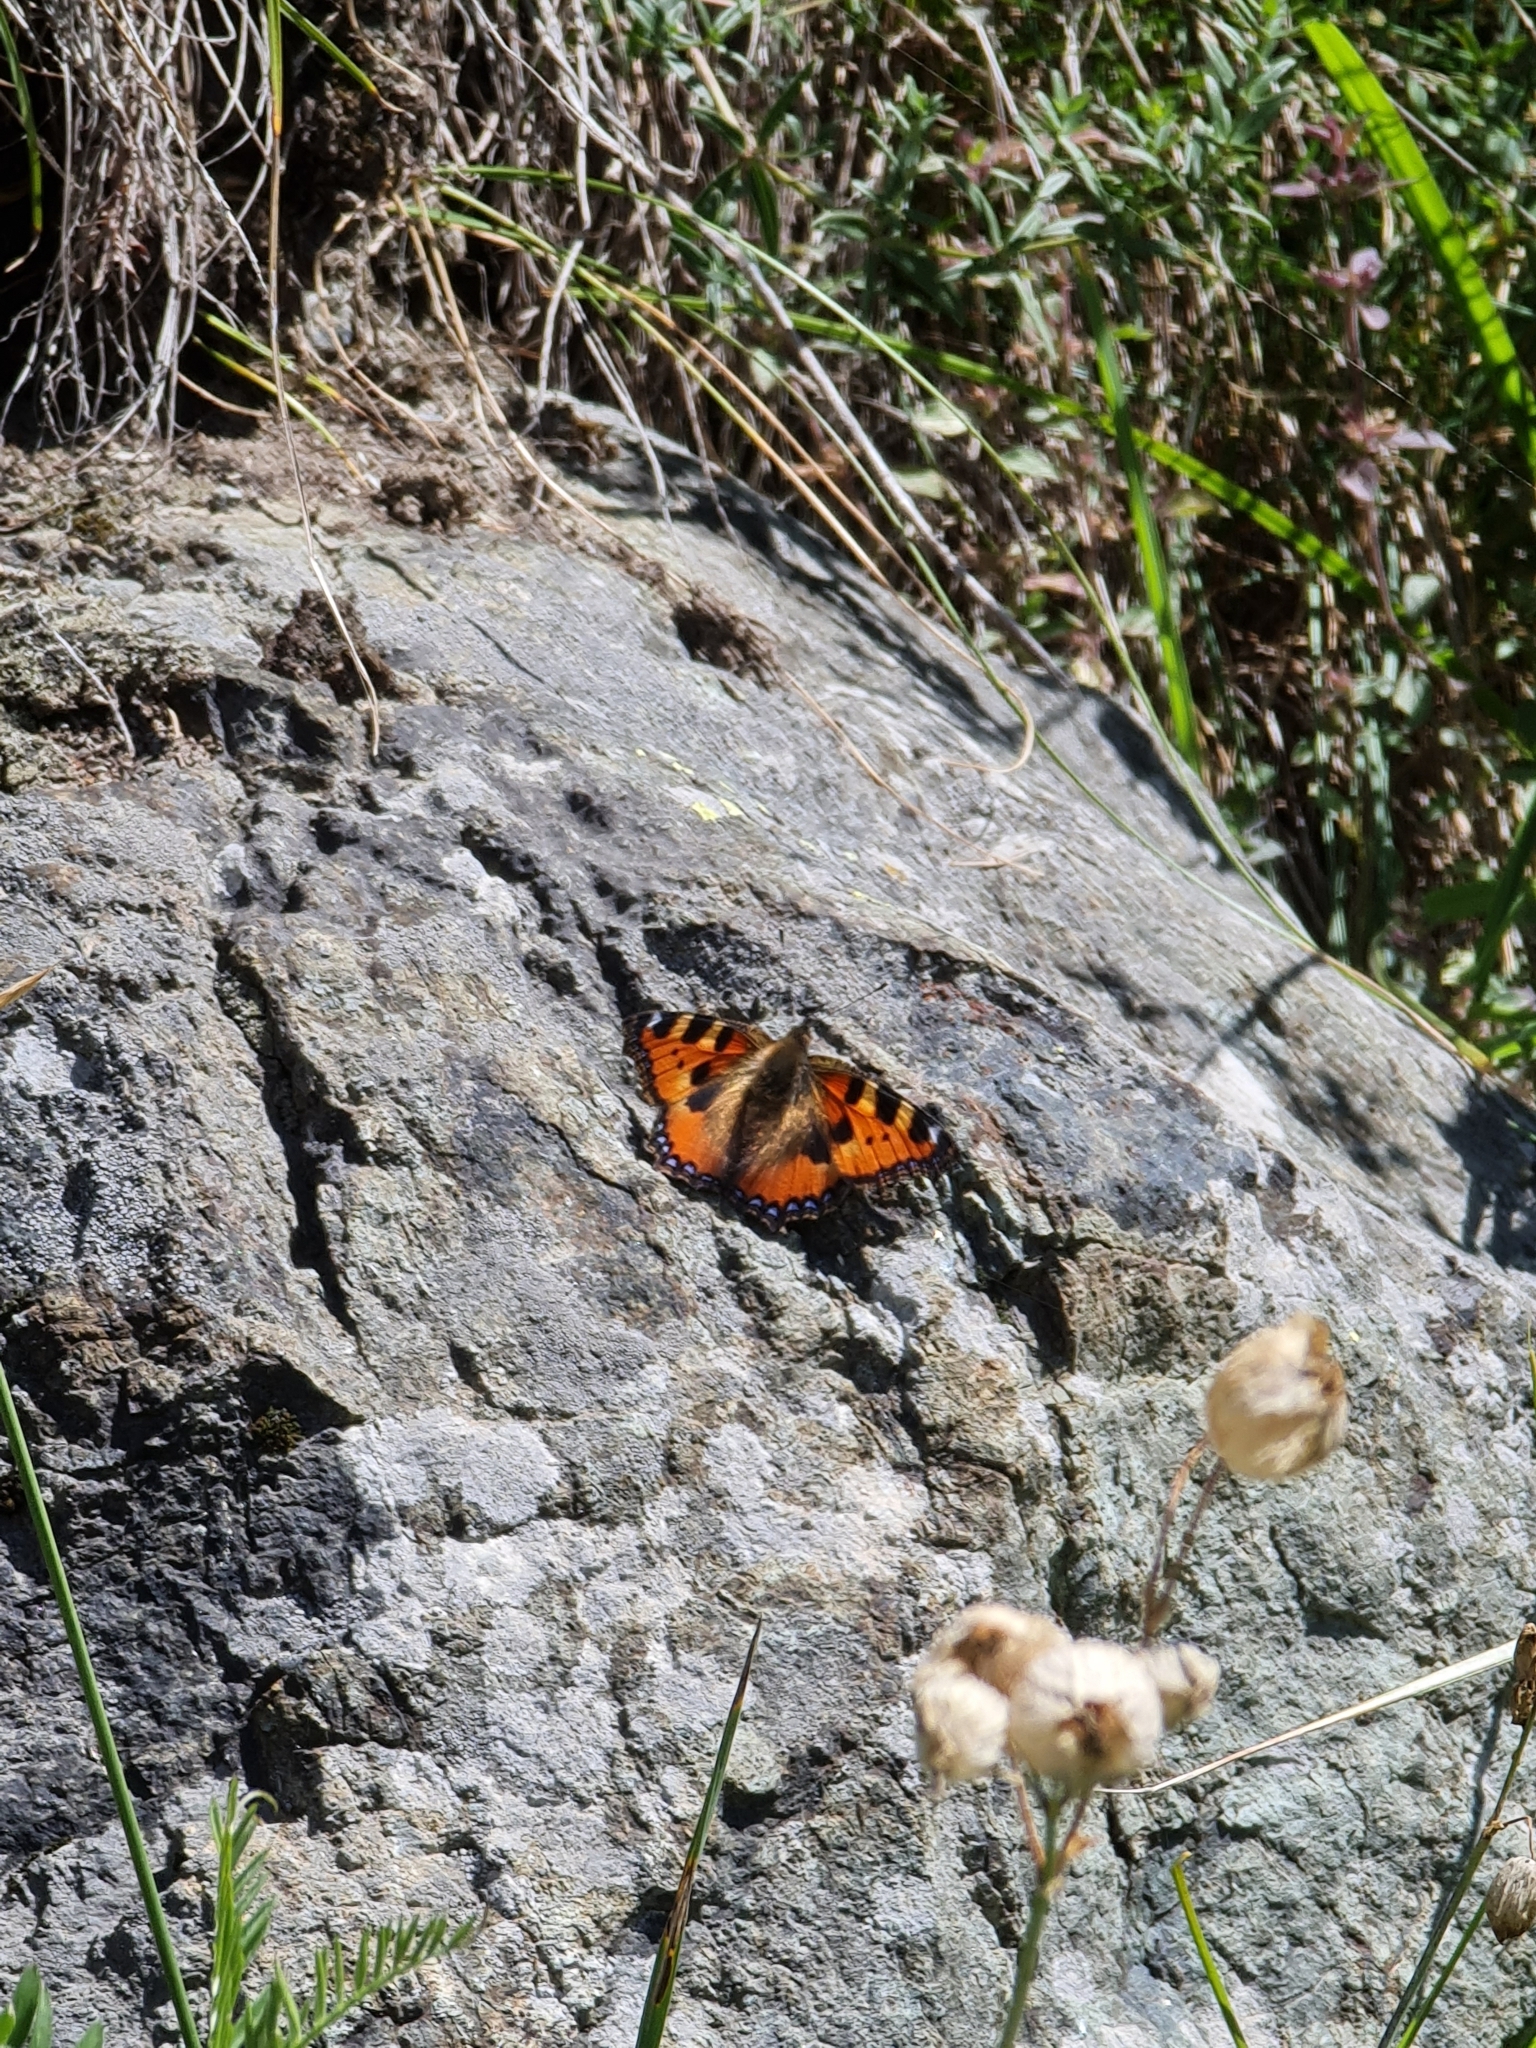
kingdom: Animalia
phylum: Arthropoda
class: Insecta
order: Lepidoptera
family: Nymphalidae
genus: Aglais
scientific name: Aglais urticae
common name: Small tortoiseshell
